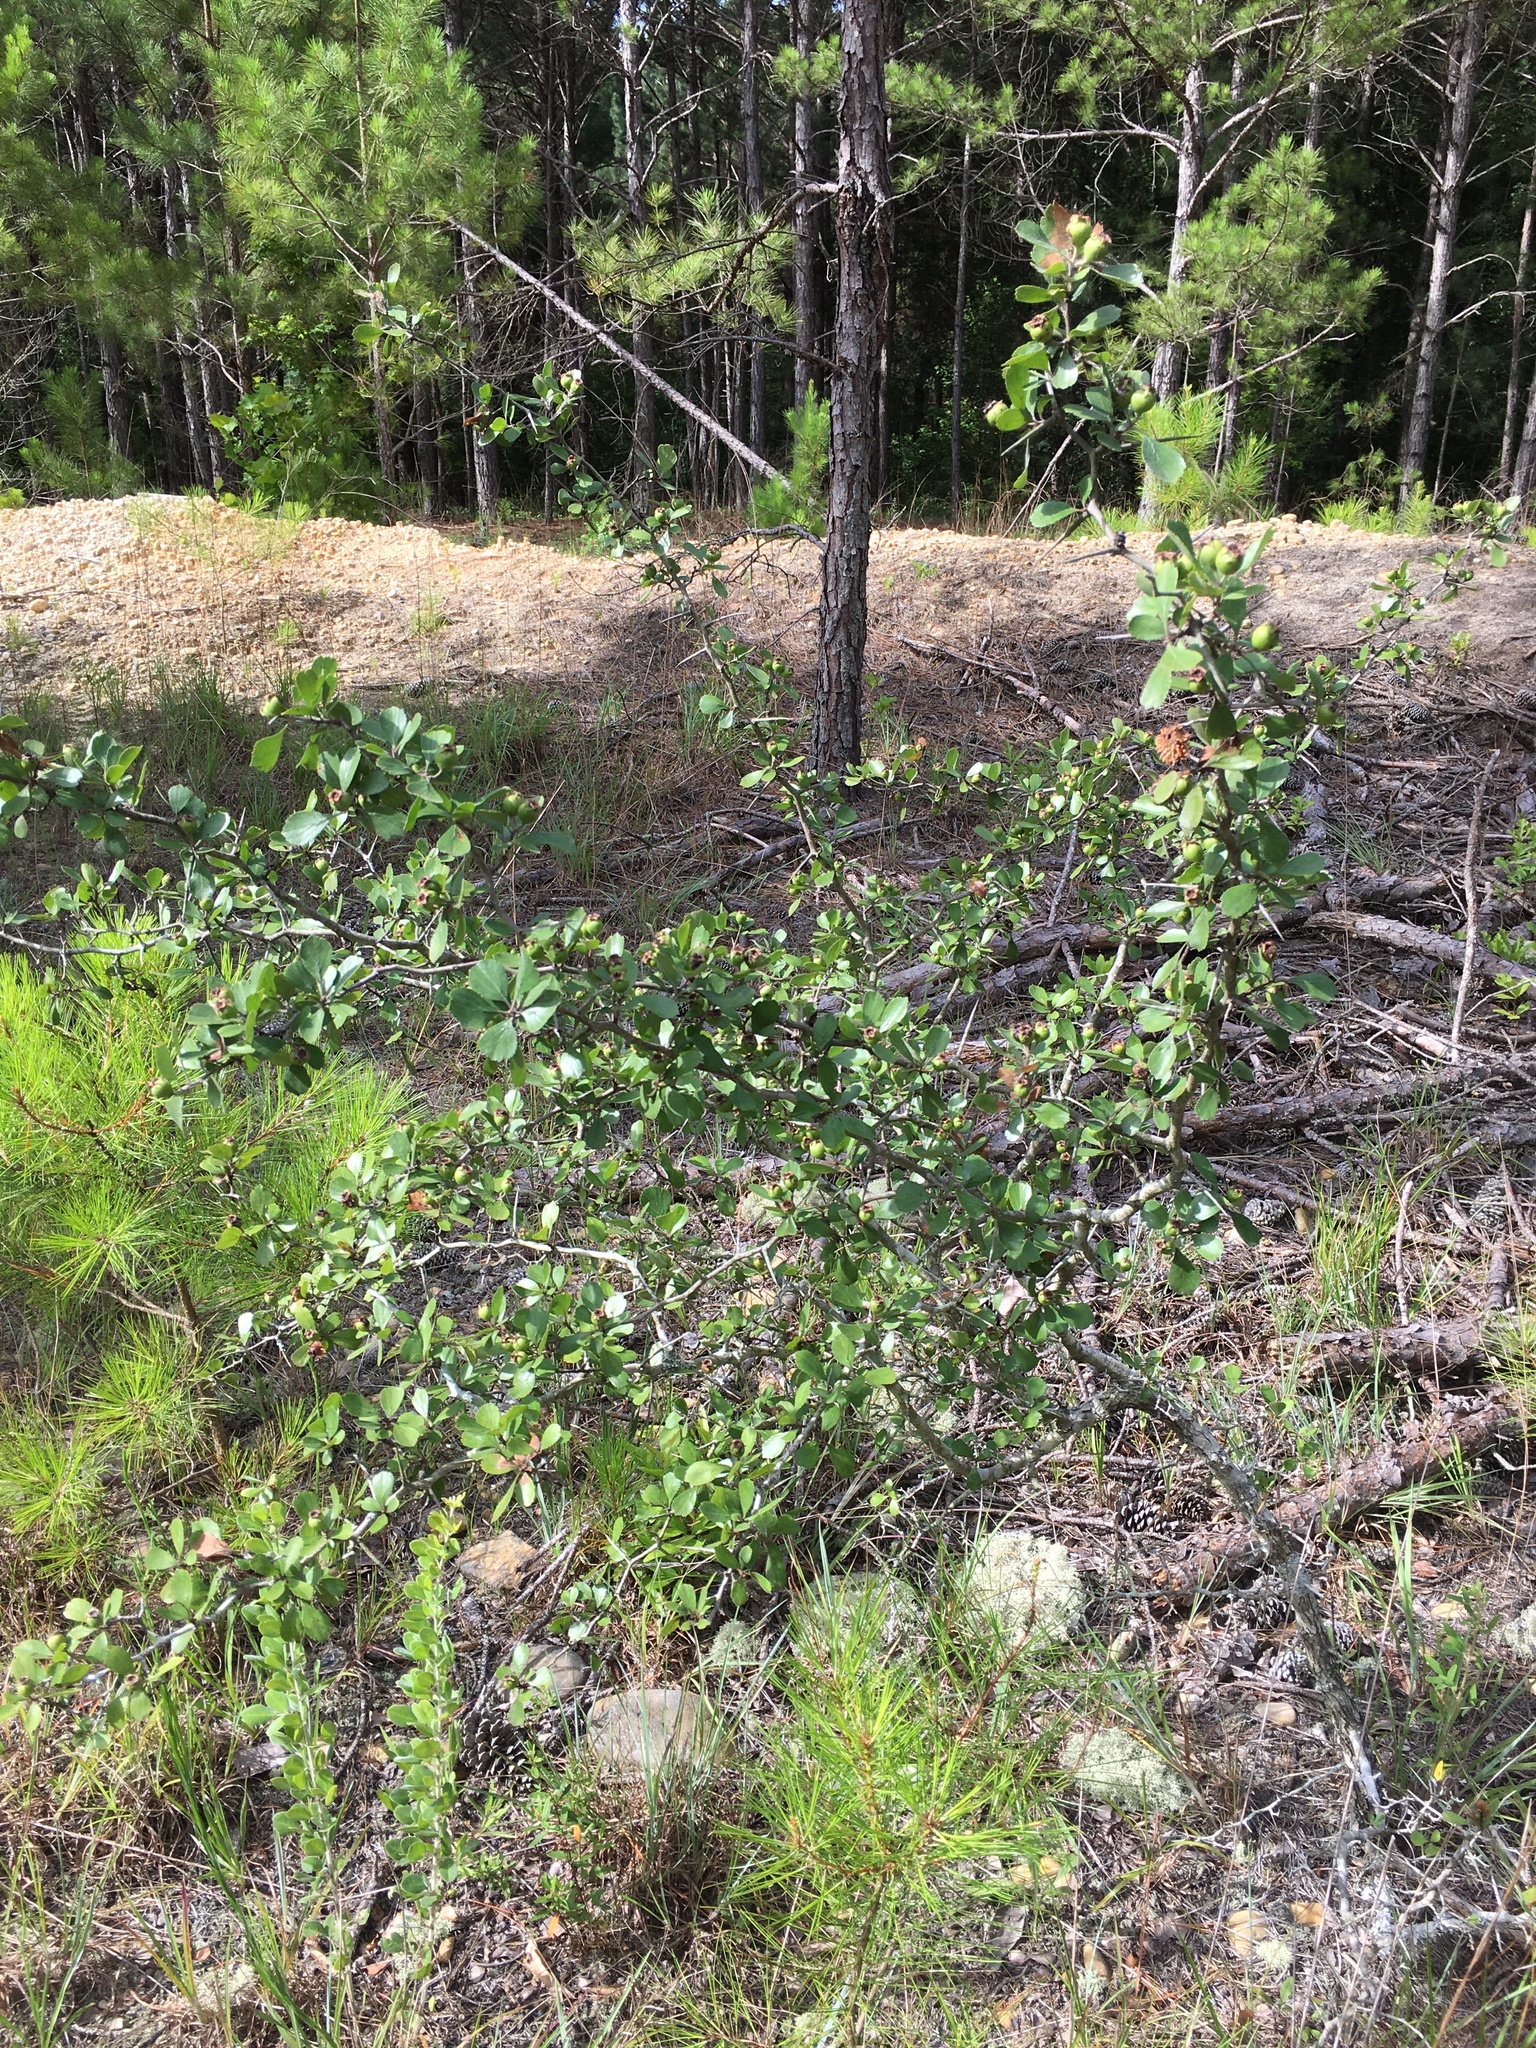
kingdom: Plantae
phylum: Tracheophyta
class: Magnoliopsida
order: Rosales
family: Rosaceae
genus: Crataegus
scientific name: Crataegus uniflora
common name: One-flower hawthorn
